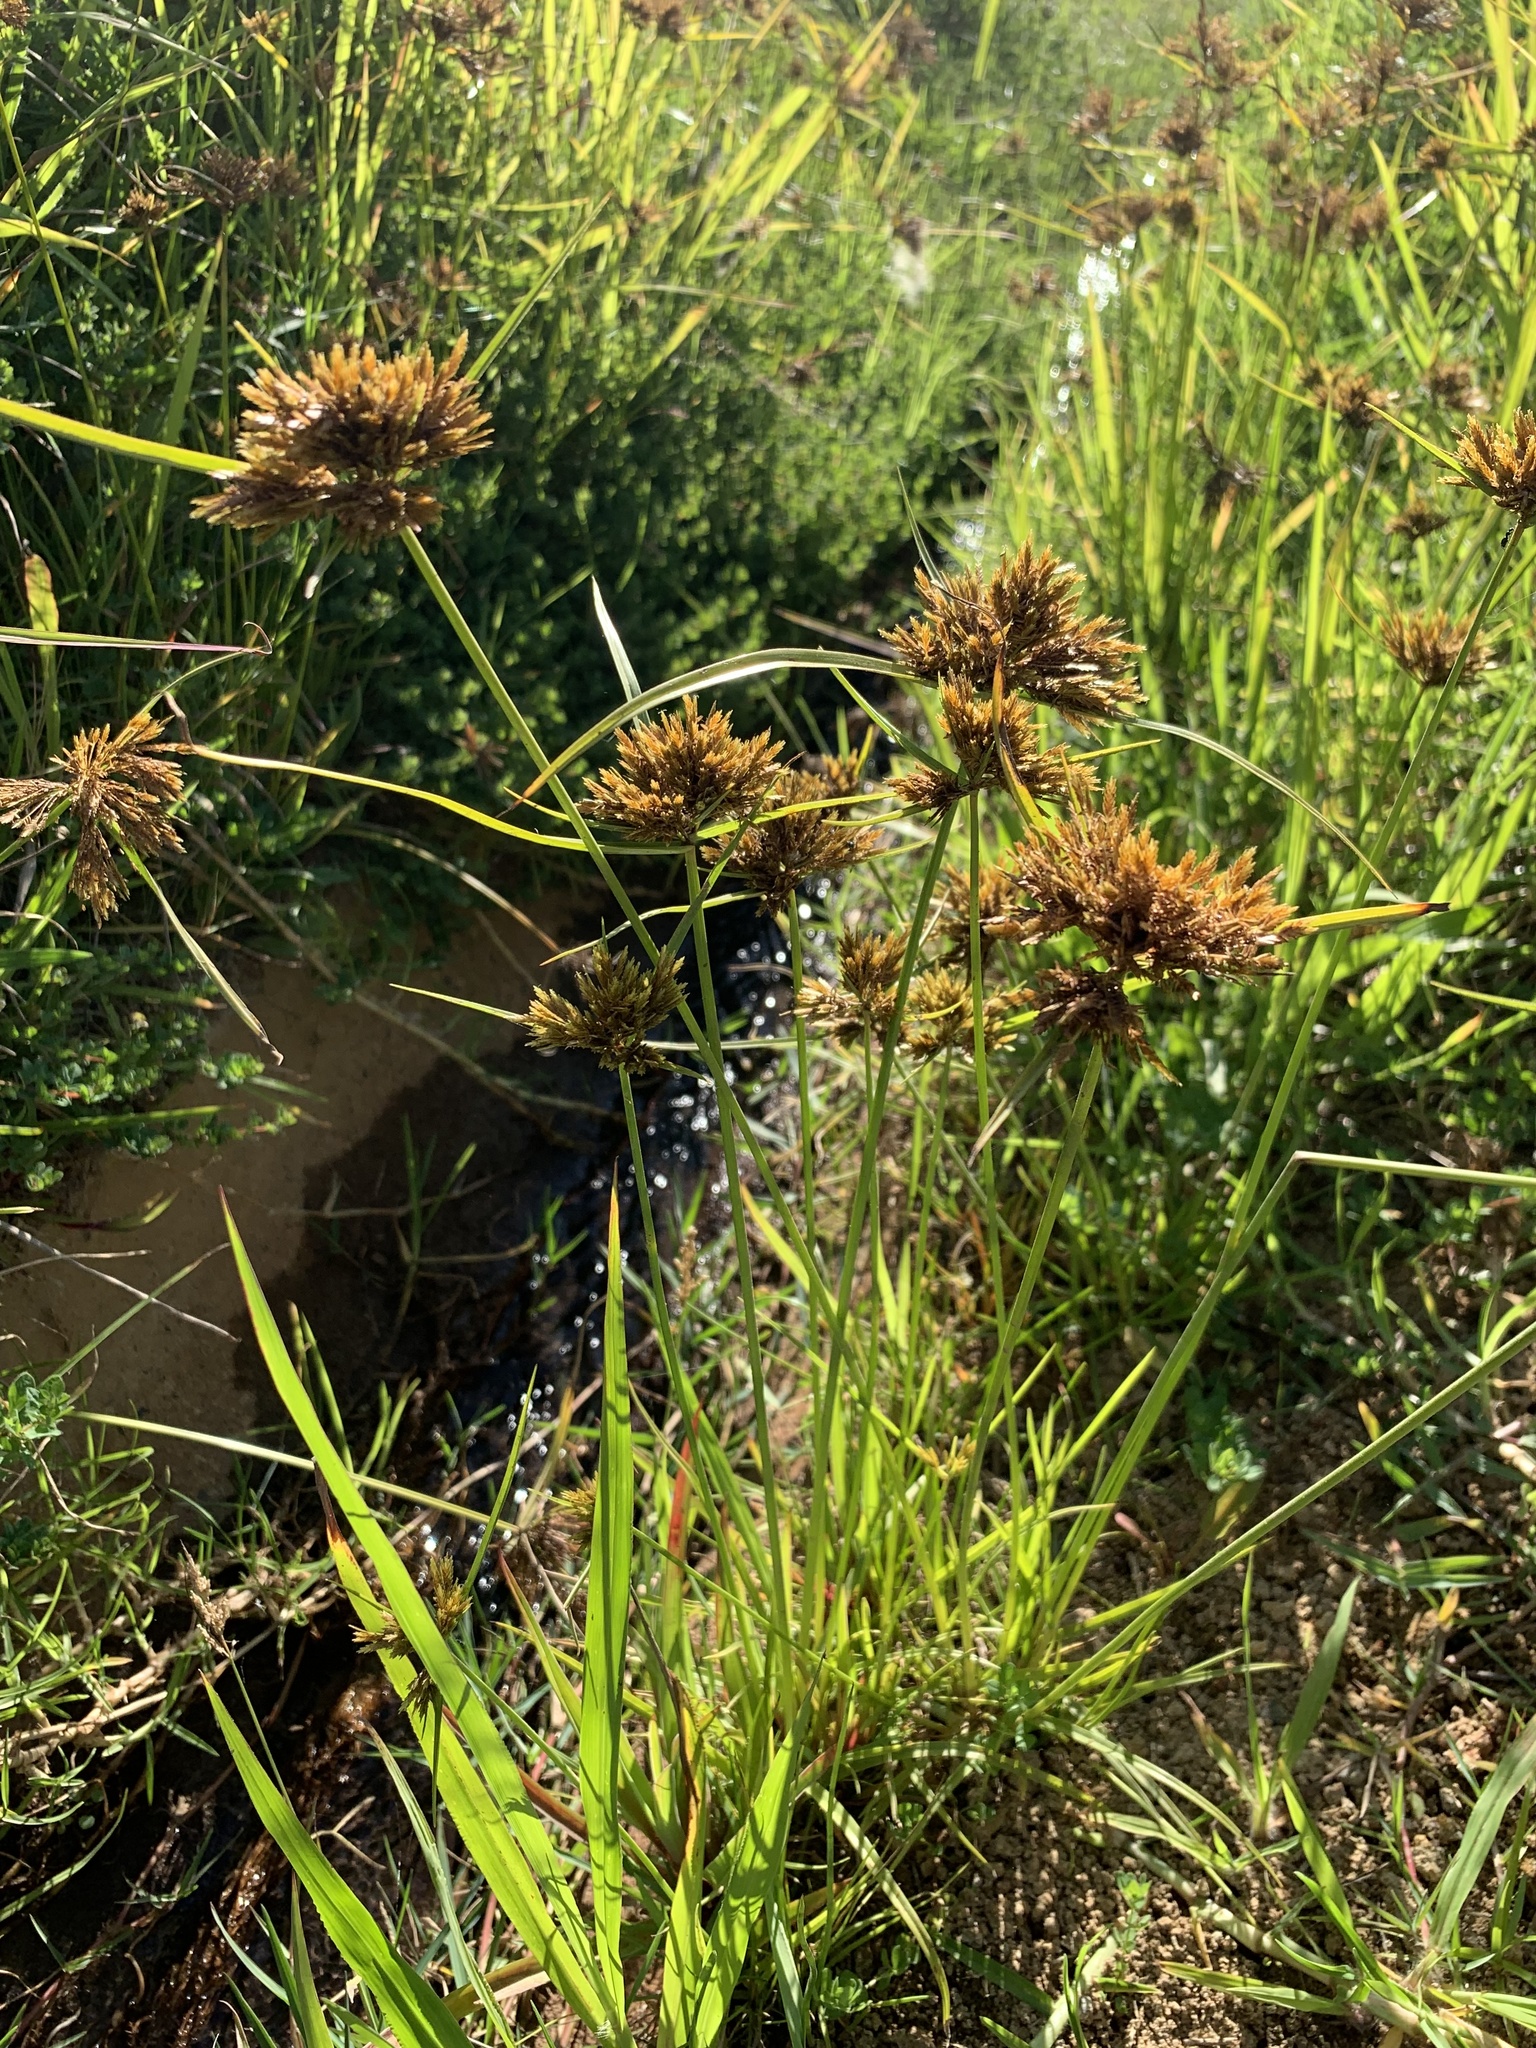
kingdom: Plantae
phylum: Tracheophyta
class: Liliopsida
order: Poales
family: Cyperaceae
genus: Cyperus
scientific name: Cyperus polystachyos
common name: Bunchy flat sedge
